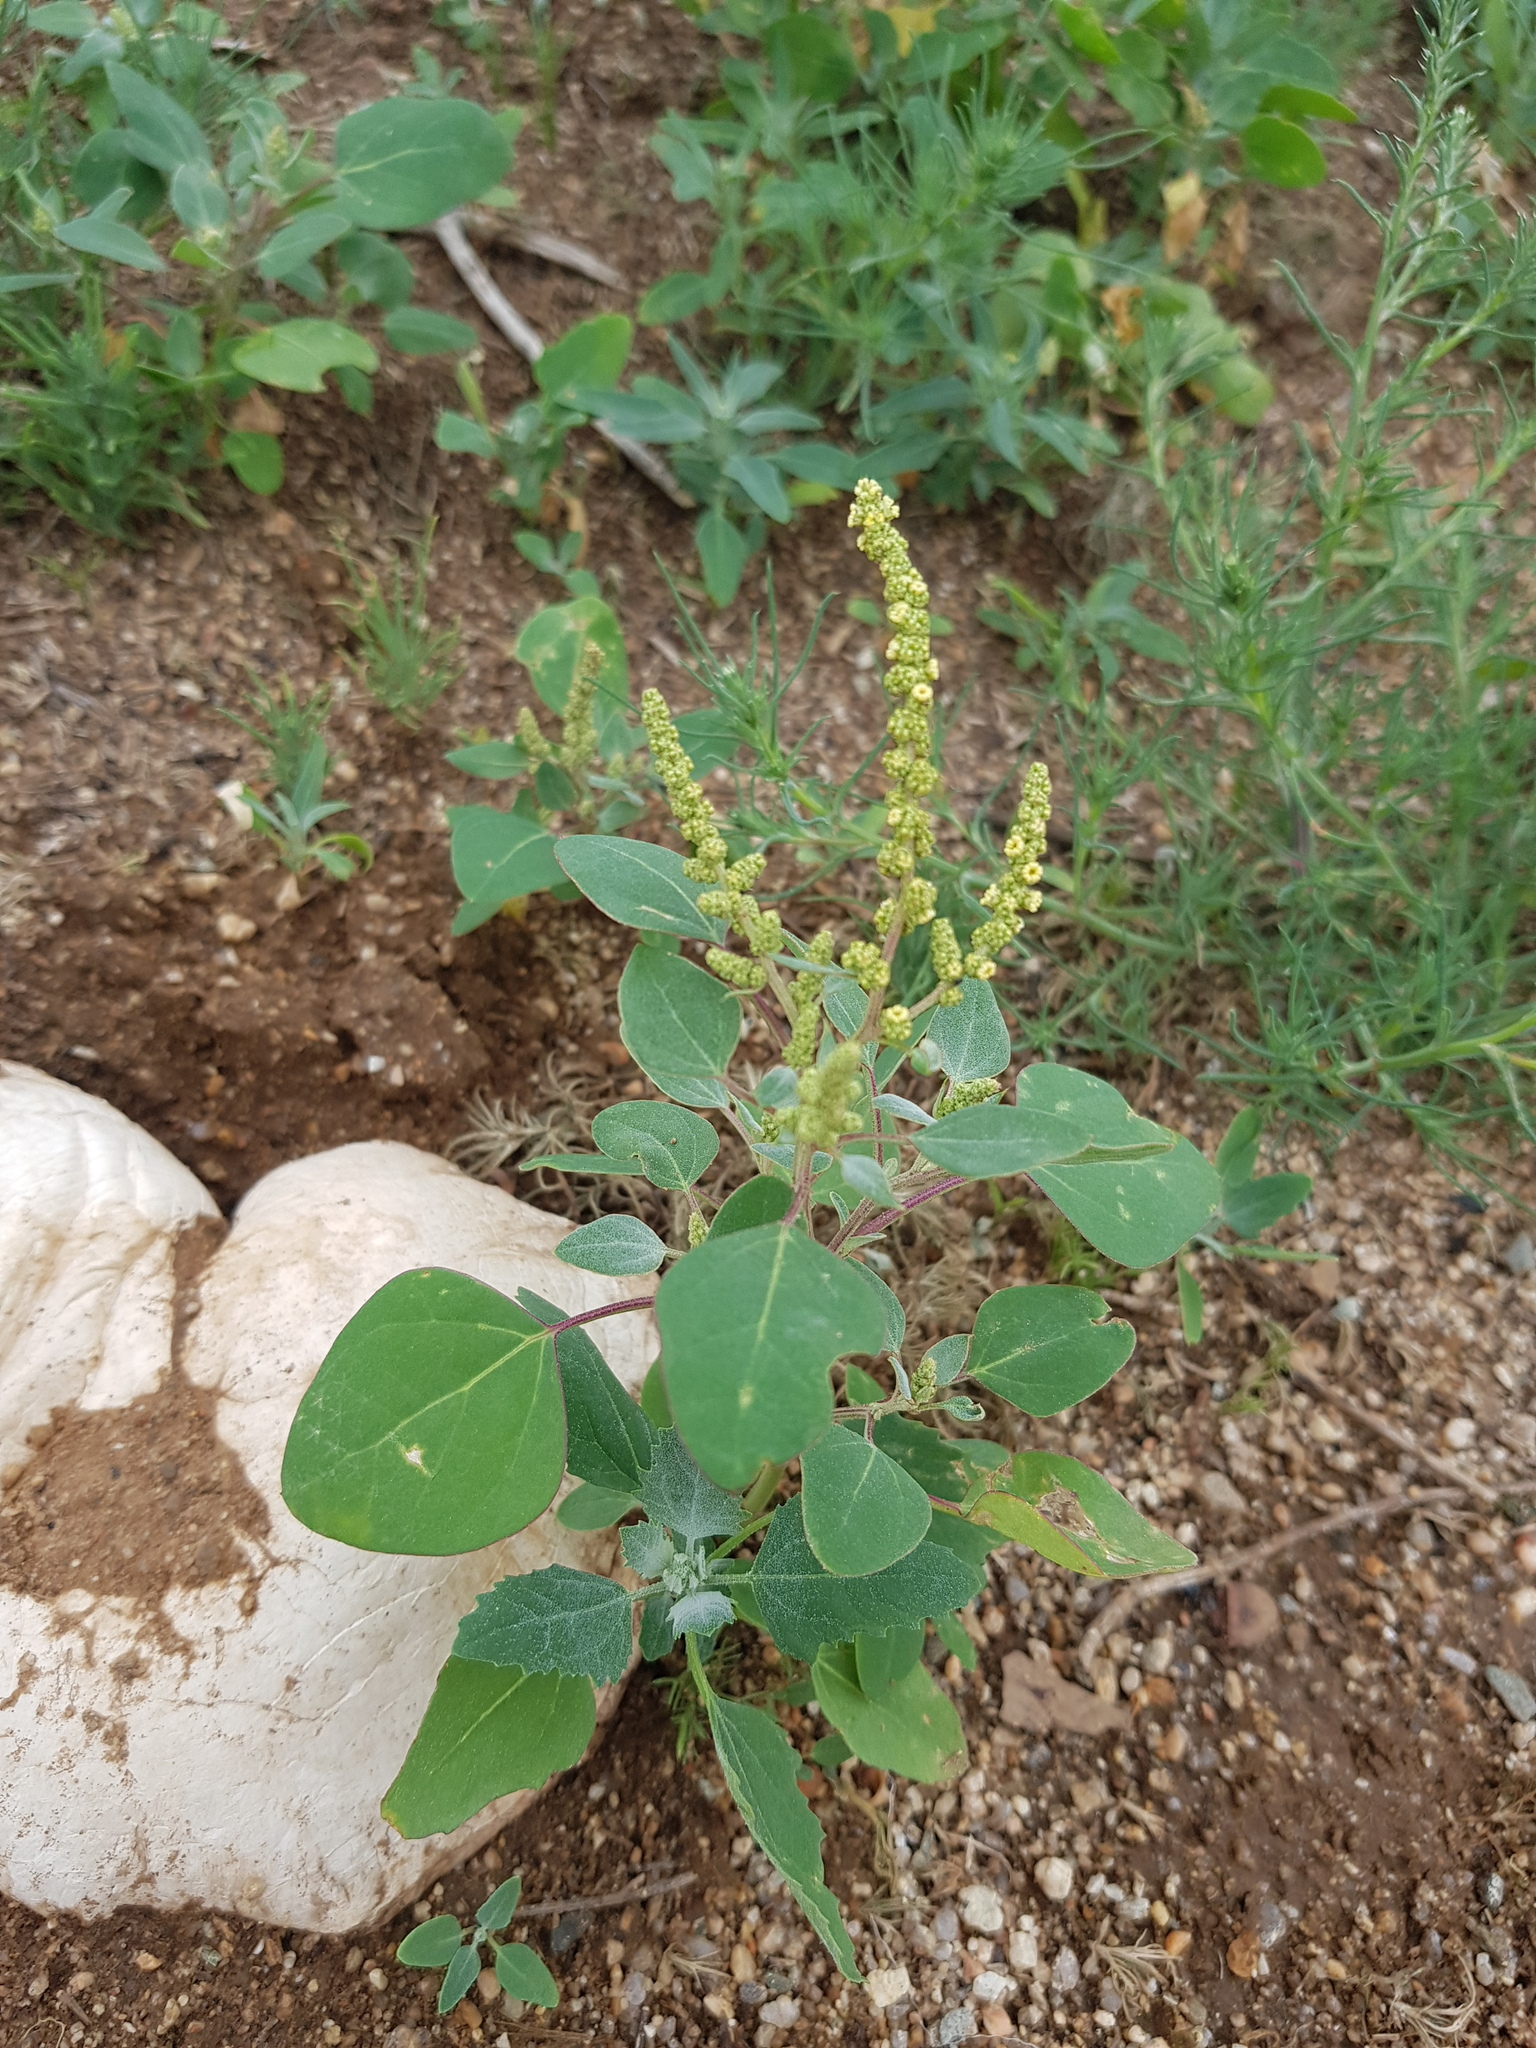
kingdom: Plantae
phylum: Tracheophyta
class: Magnoliopsida
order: Caryophyllales
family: Amaranthaceae
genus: Chenopodium
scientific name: Chenopodium acuminatum
